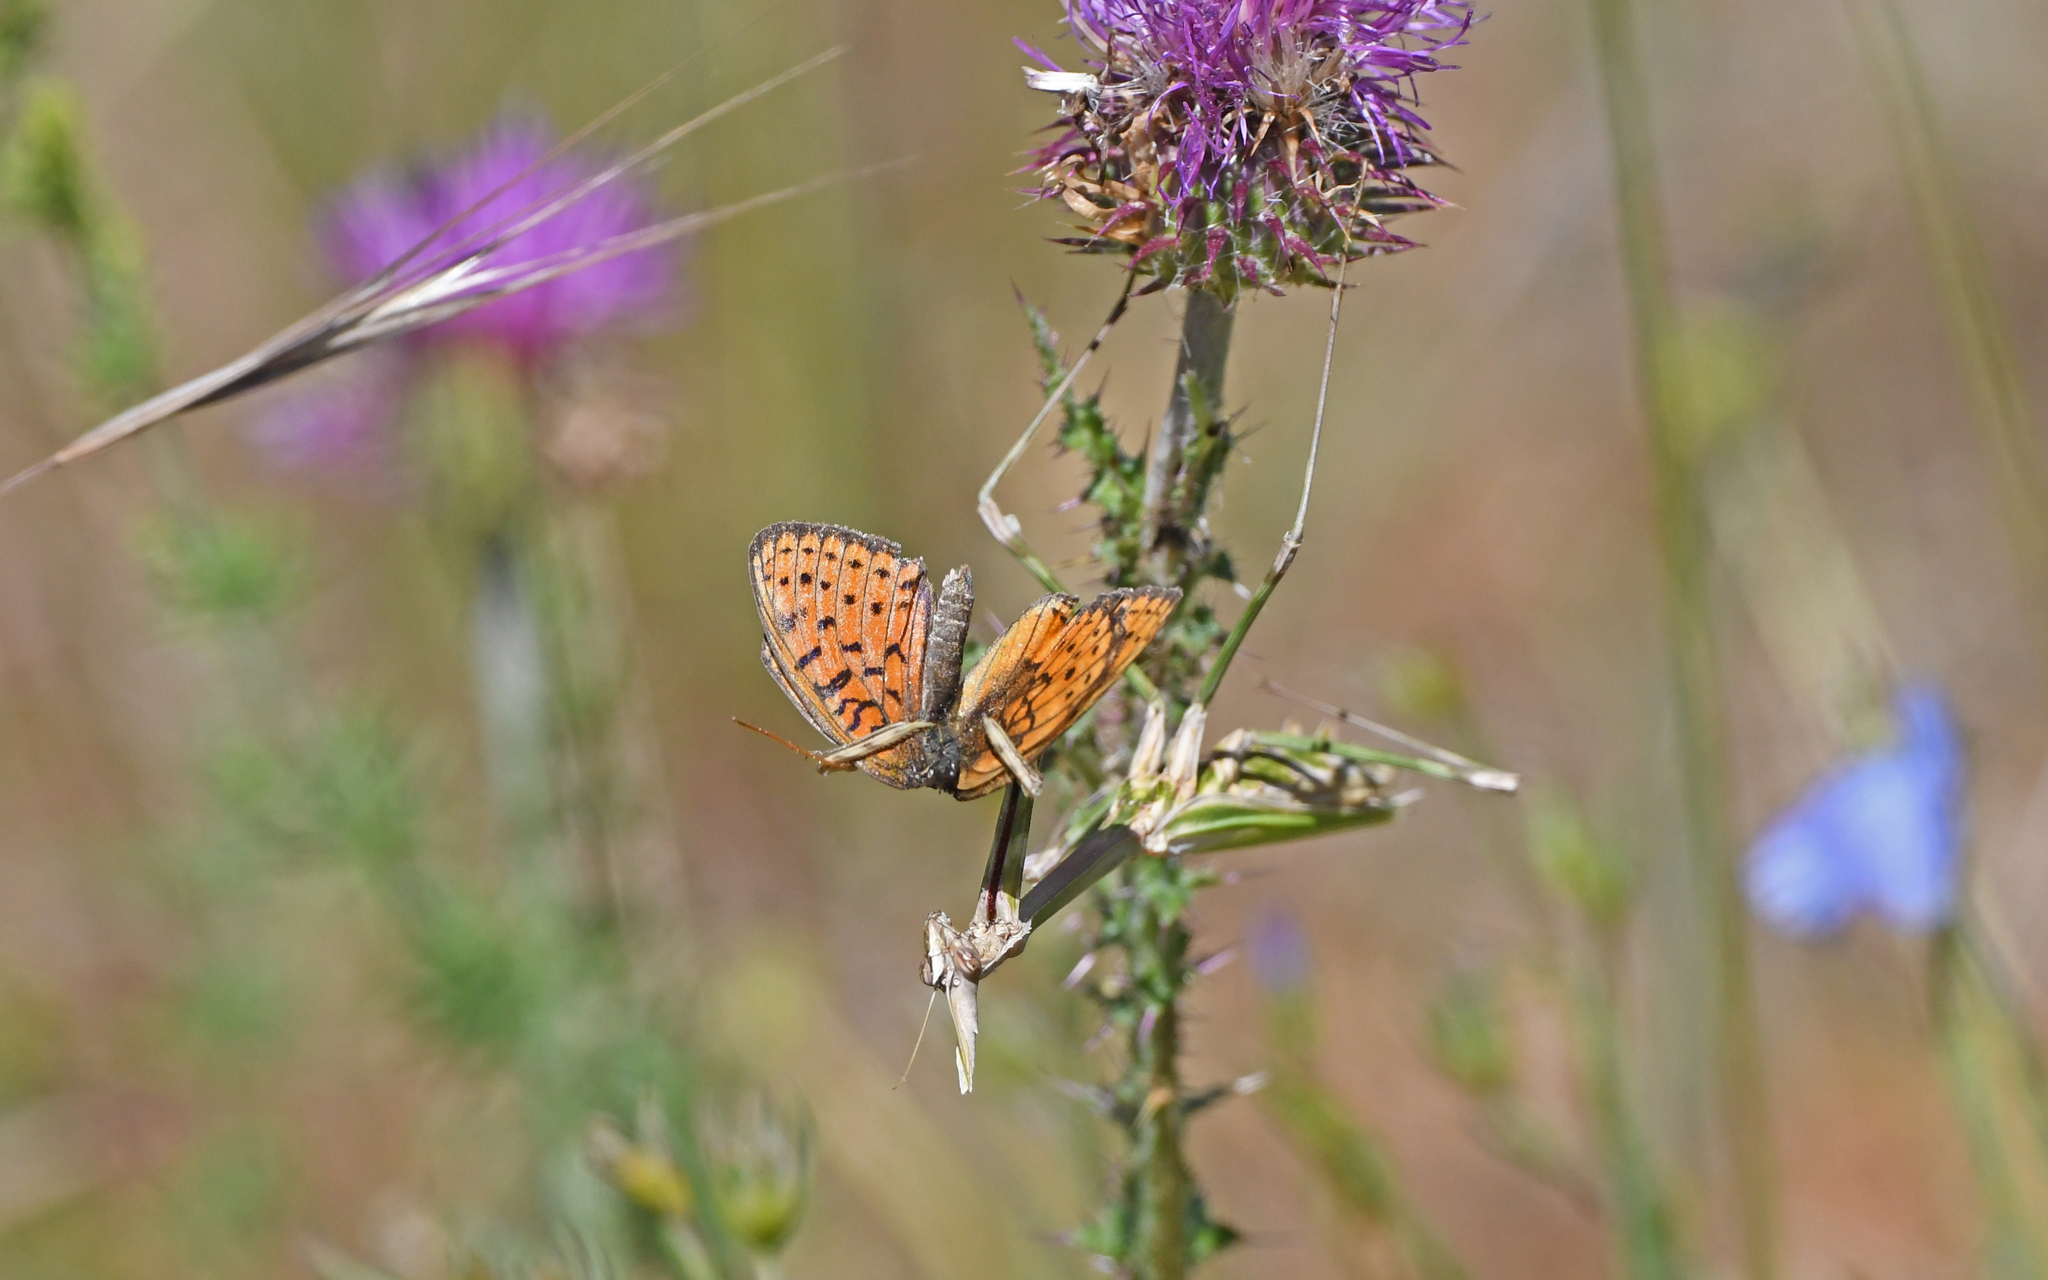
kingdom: Animalia
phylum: Arthropoda
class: Insecta
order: Mantodea
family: Empusidae
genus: Empusa
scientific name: Empusa pennata
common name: Conehead mantis
